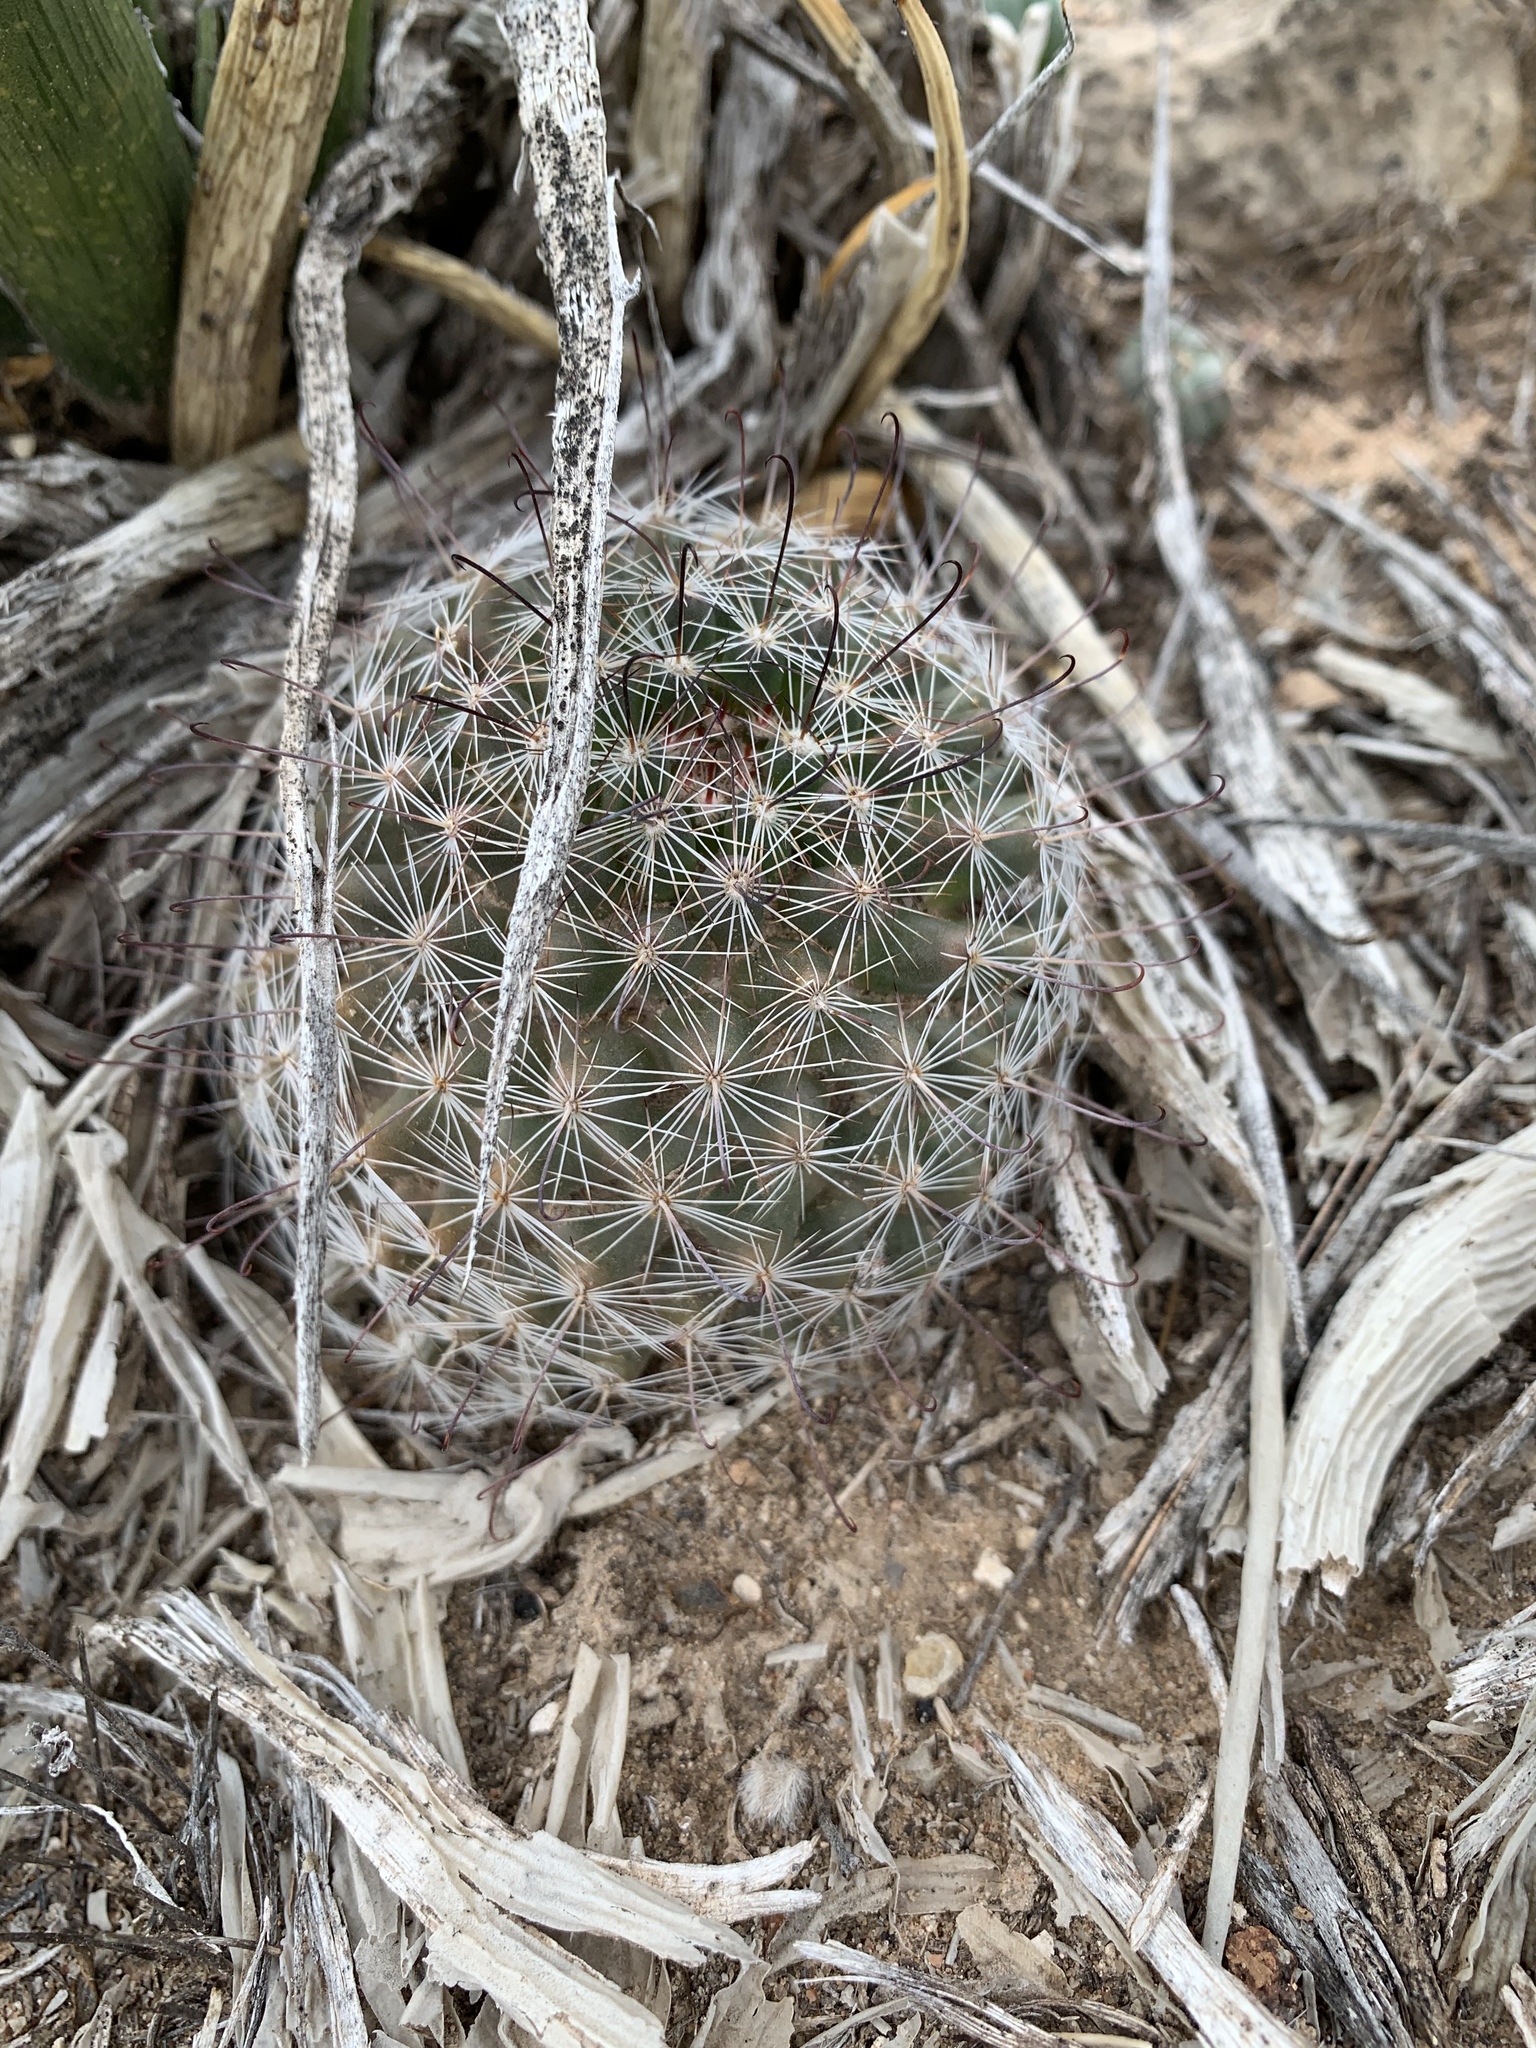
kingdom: Plantae
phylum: Tracheophyta
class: Magnoliopsida
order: Caryophyllales
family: Cactaceae
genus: Cochemiea
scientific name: Cochemiea grahamii
